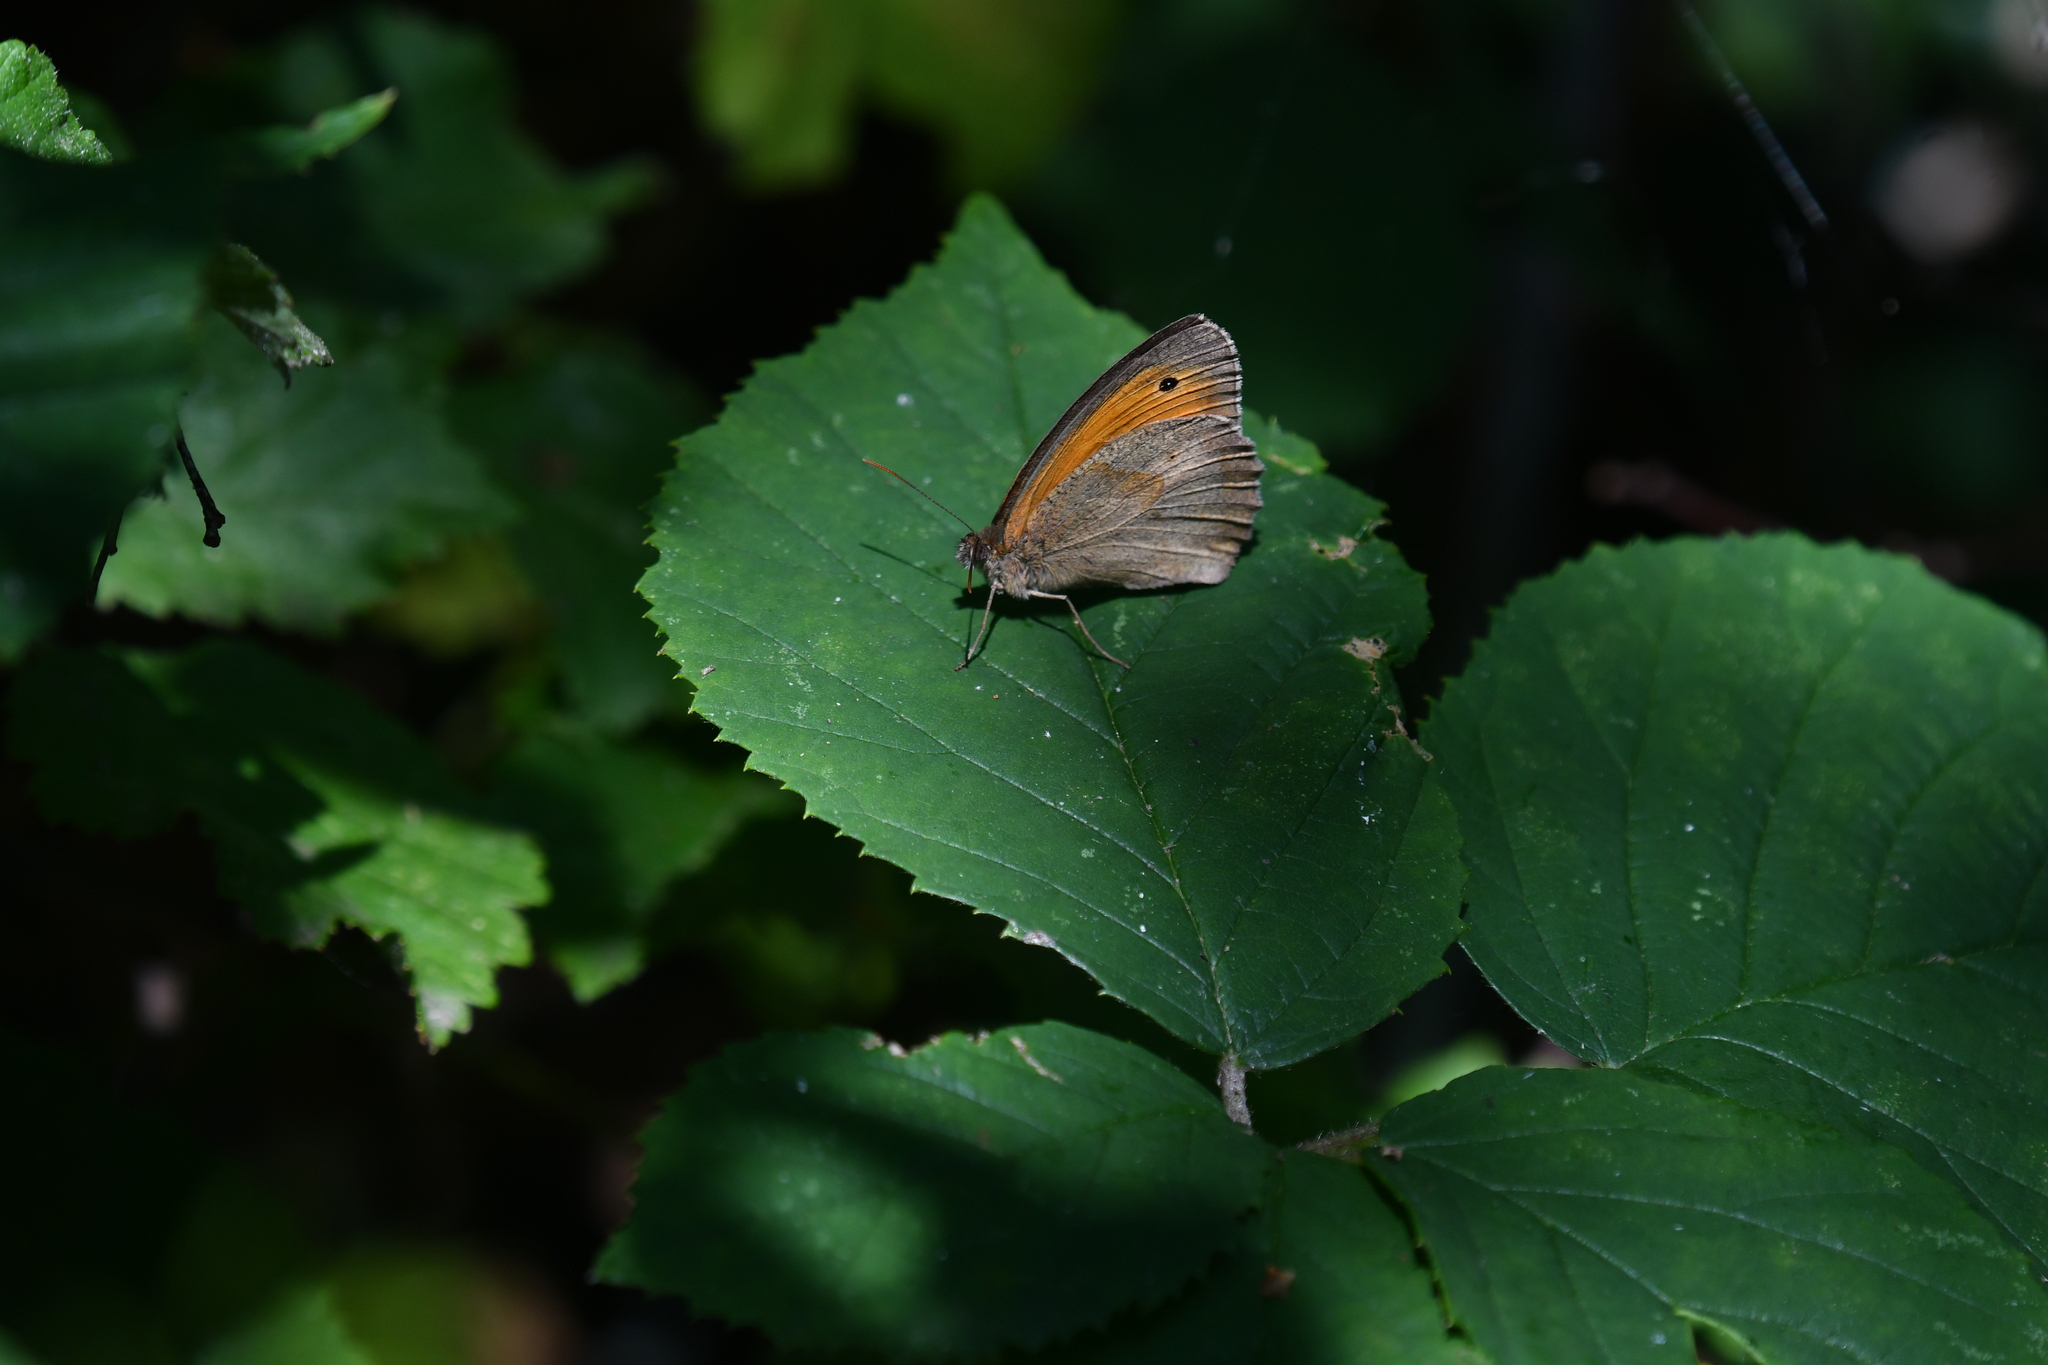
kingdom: Animalia
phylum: Arthropoda
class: Insecta
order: Lepidoptera
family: Nymphalidae
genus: Maniola
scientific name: Maniola jurtina
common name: Meadow brown
